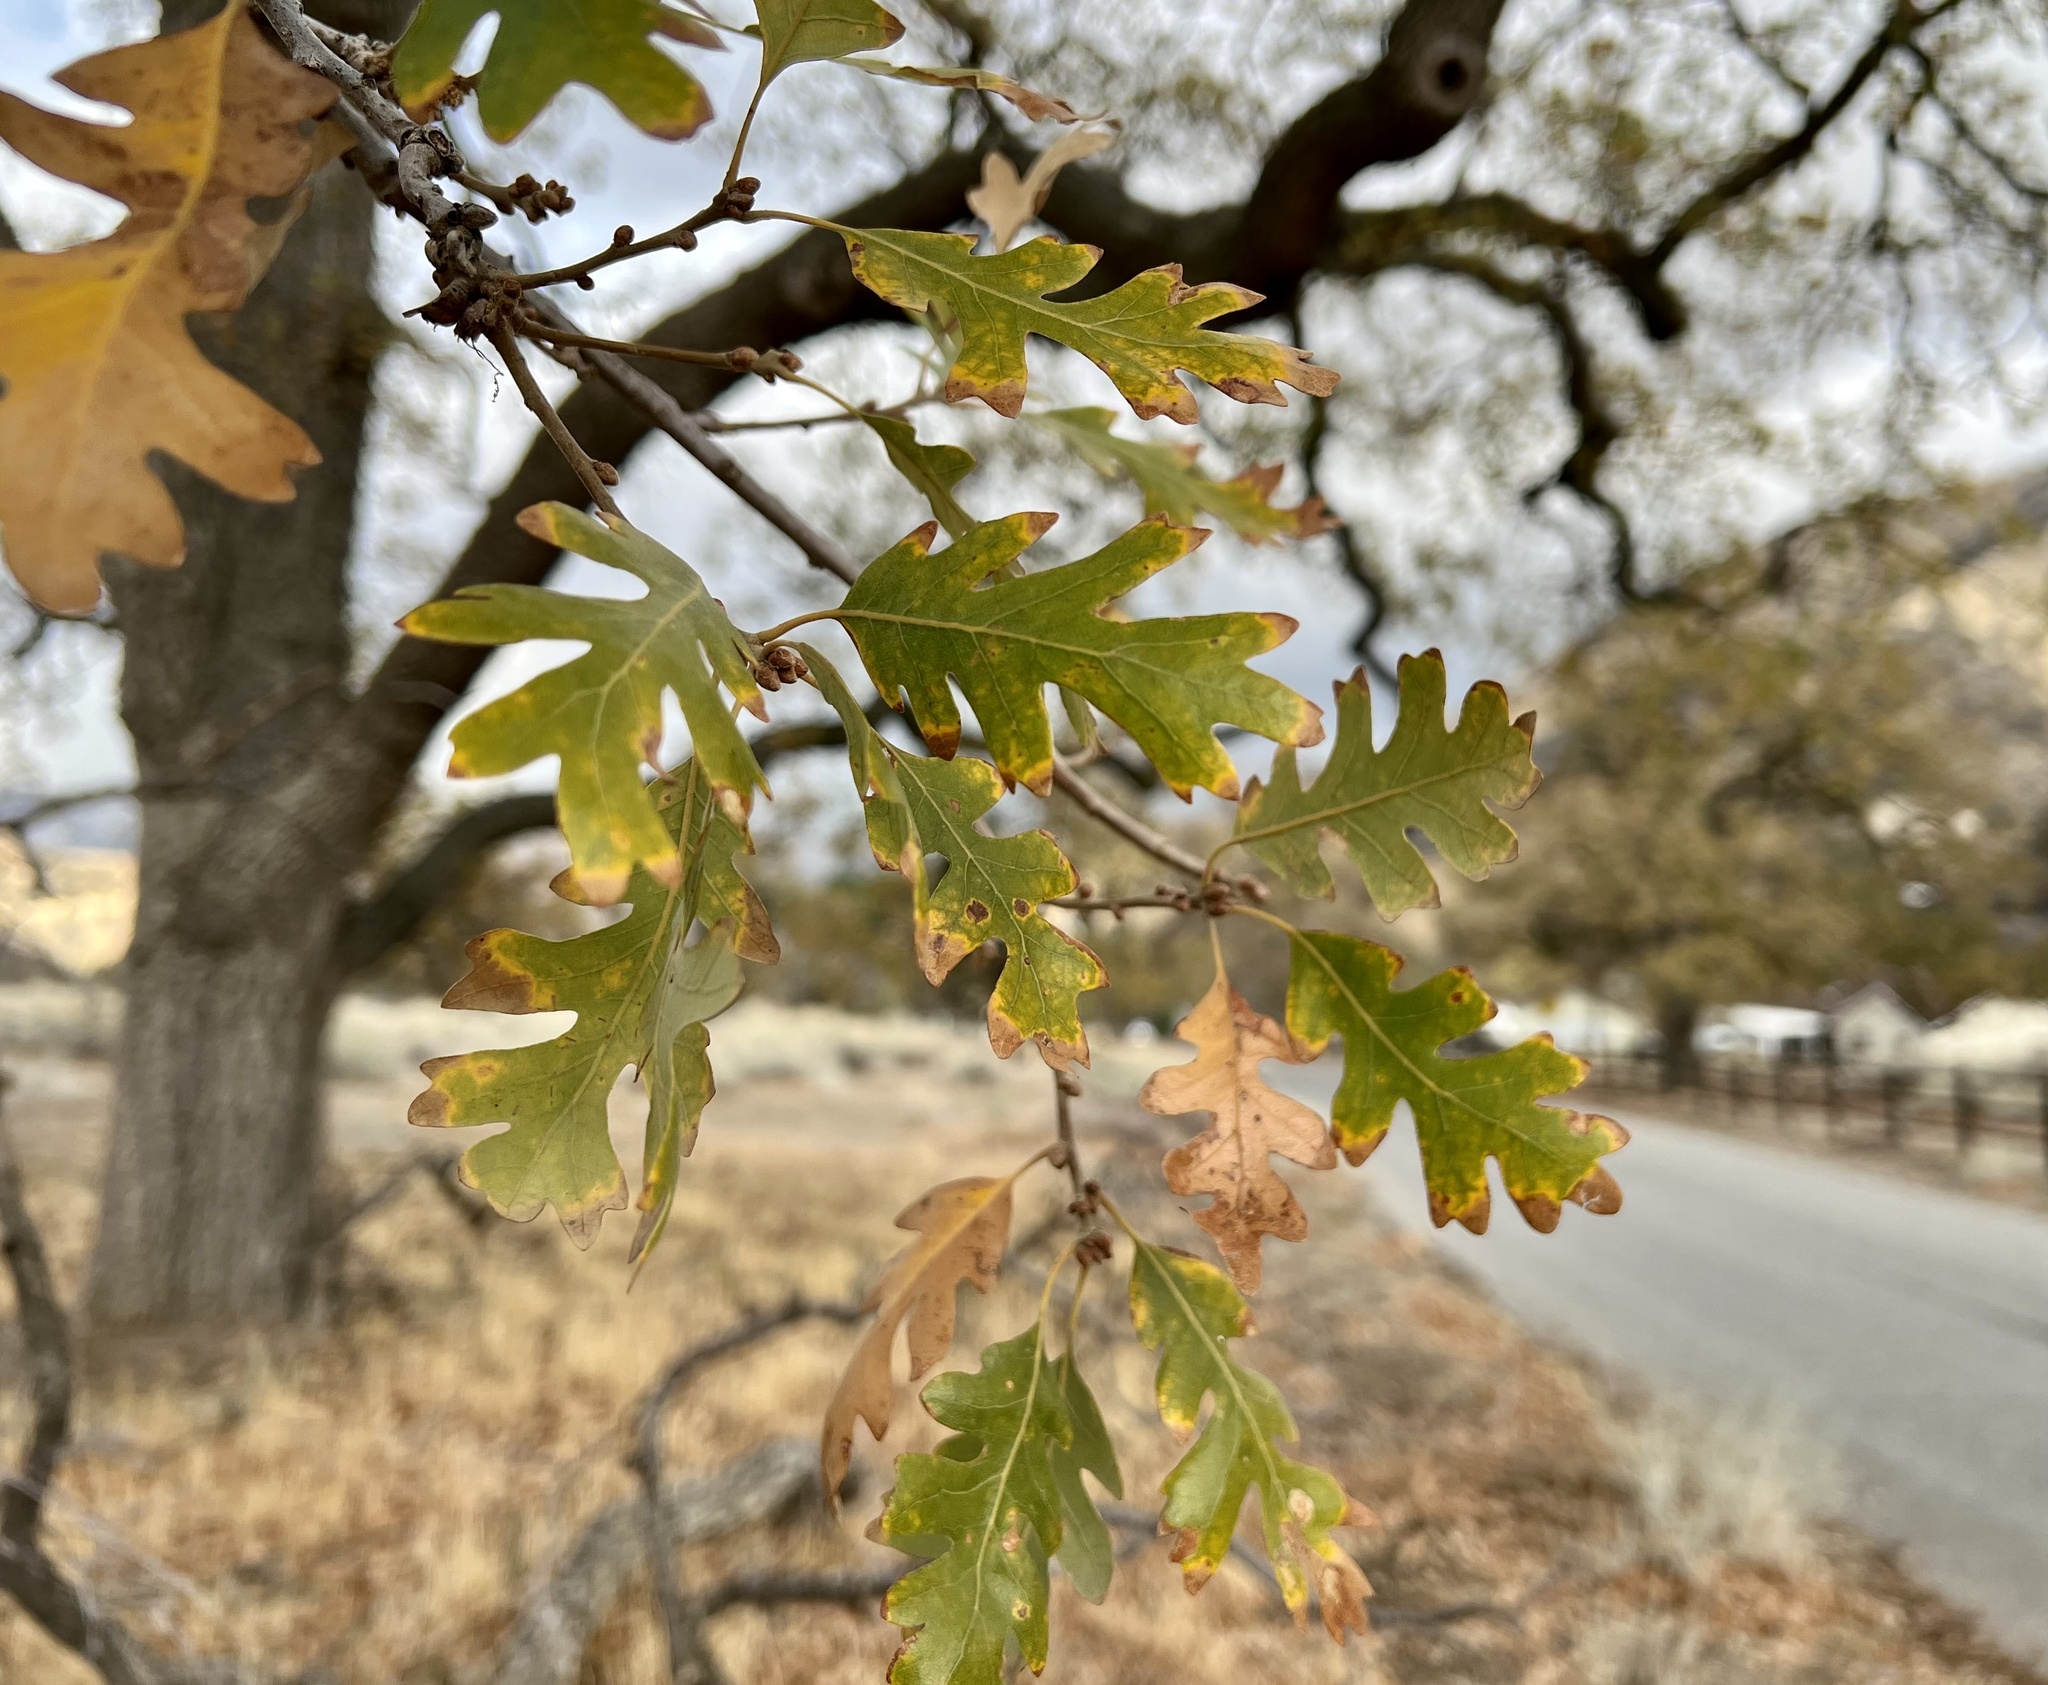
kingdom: Plantae
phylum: Tracheophyta
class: Magnoliopsida
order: Fagales
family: Fagaceae
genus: Quercus
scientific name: Quercus lobata
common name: Valley oak
